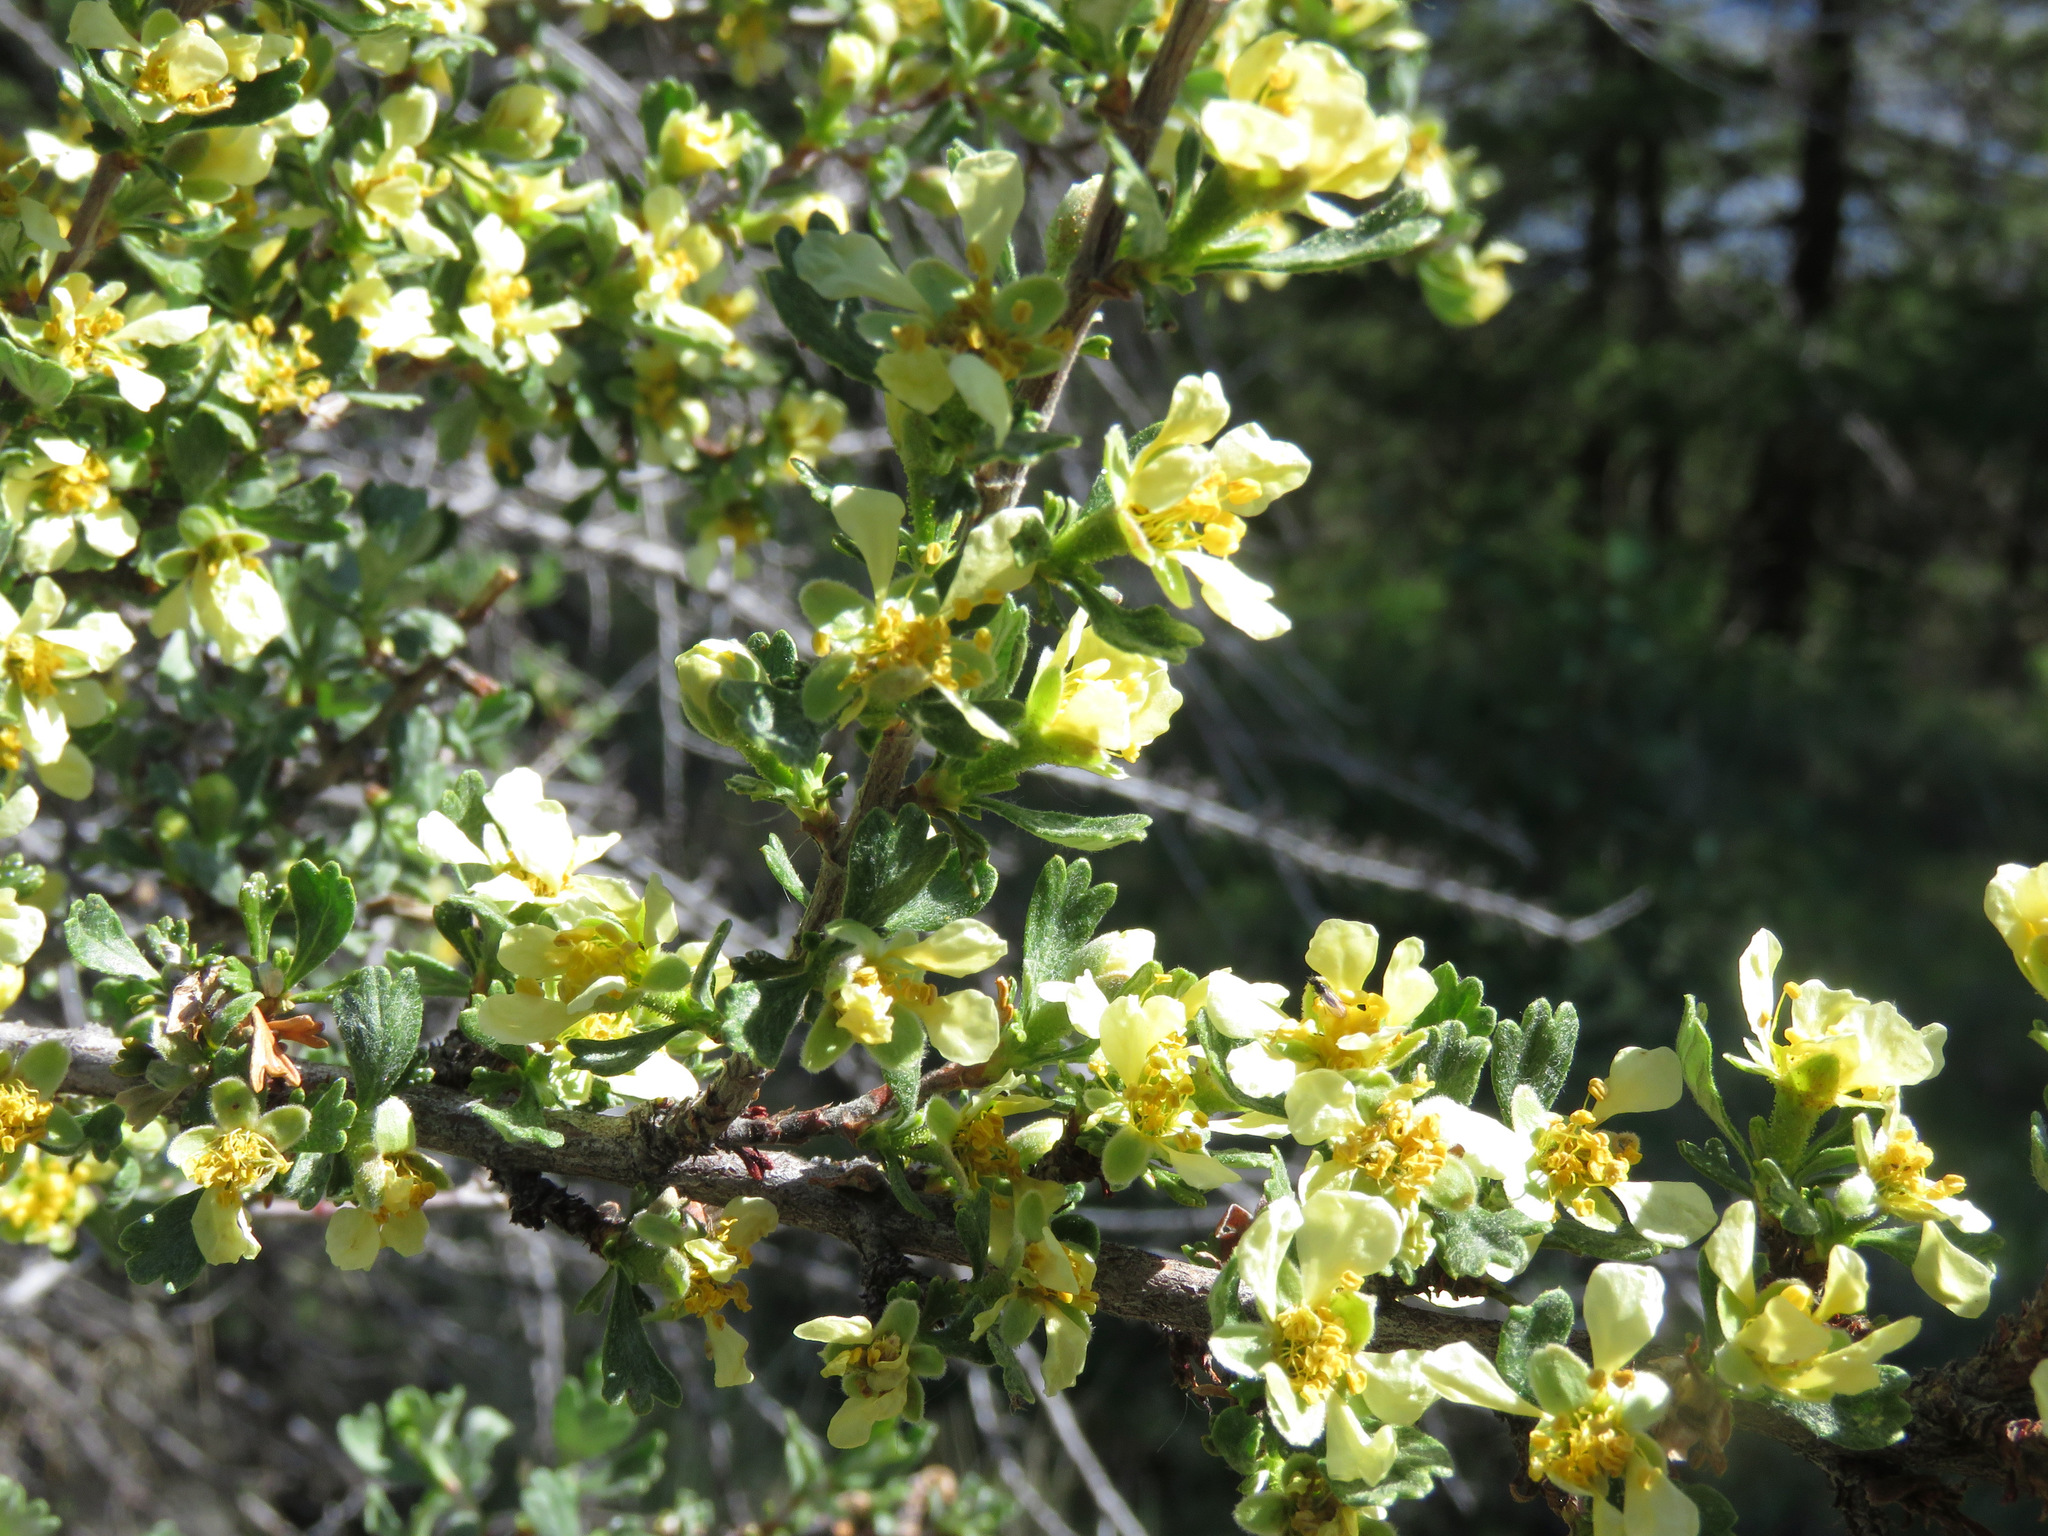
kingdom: Plantae
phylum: Tracheophyta
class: Magnoliopsida
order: Rosales
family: Rosaceae
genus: Purshia
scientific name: Purshia tridentata
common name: Antelope bitterbrush
